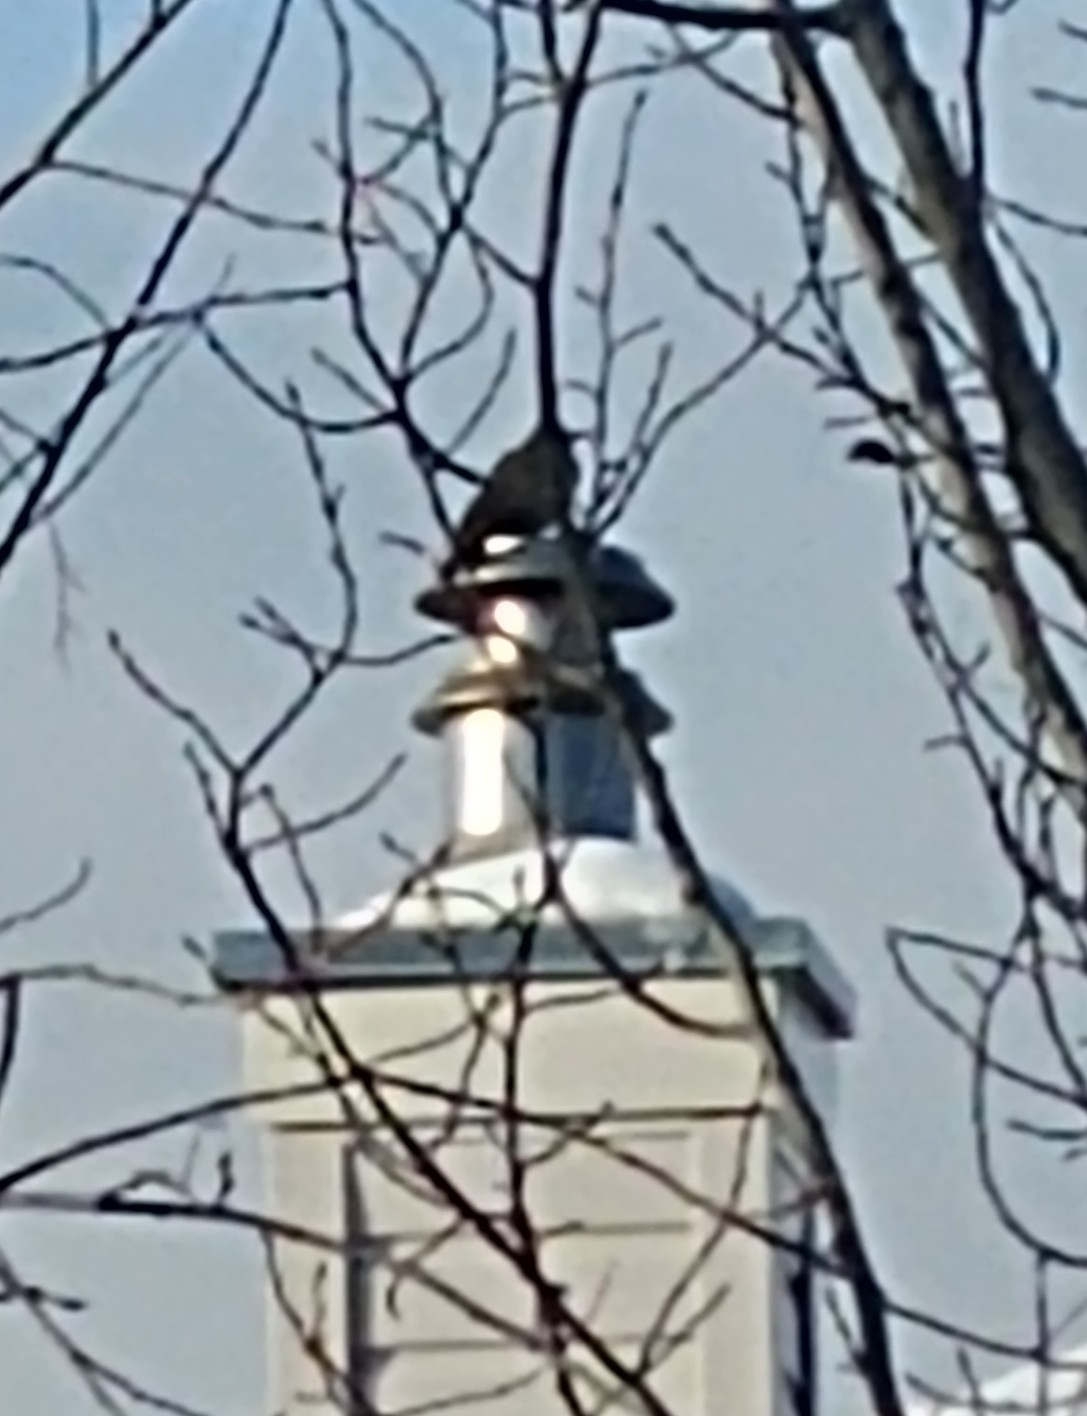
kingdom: Animalia
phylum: Chordata
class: Aves
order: Piciformes
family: Picidae
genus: Colaptes
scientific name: Colaptes auratus
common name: Northern flicker
